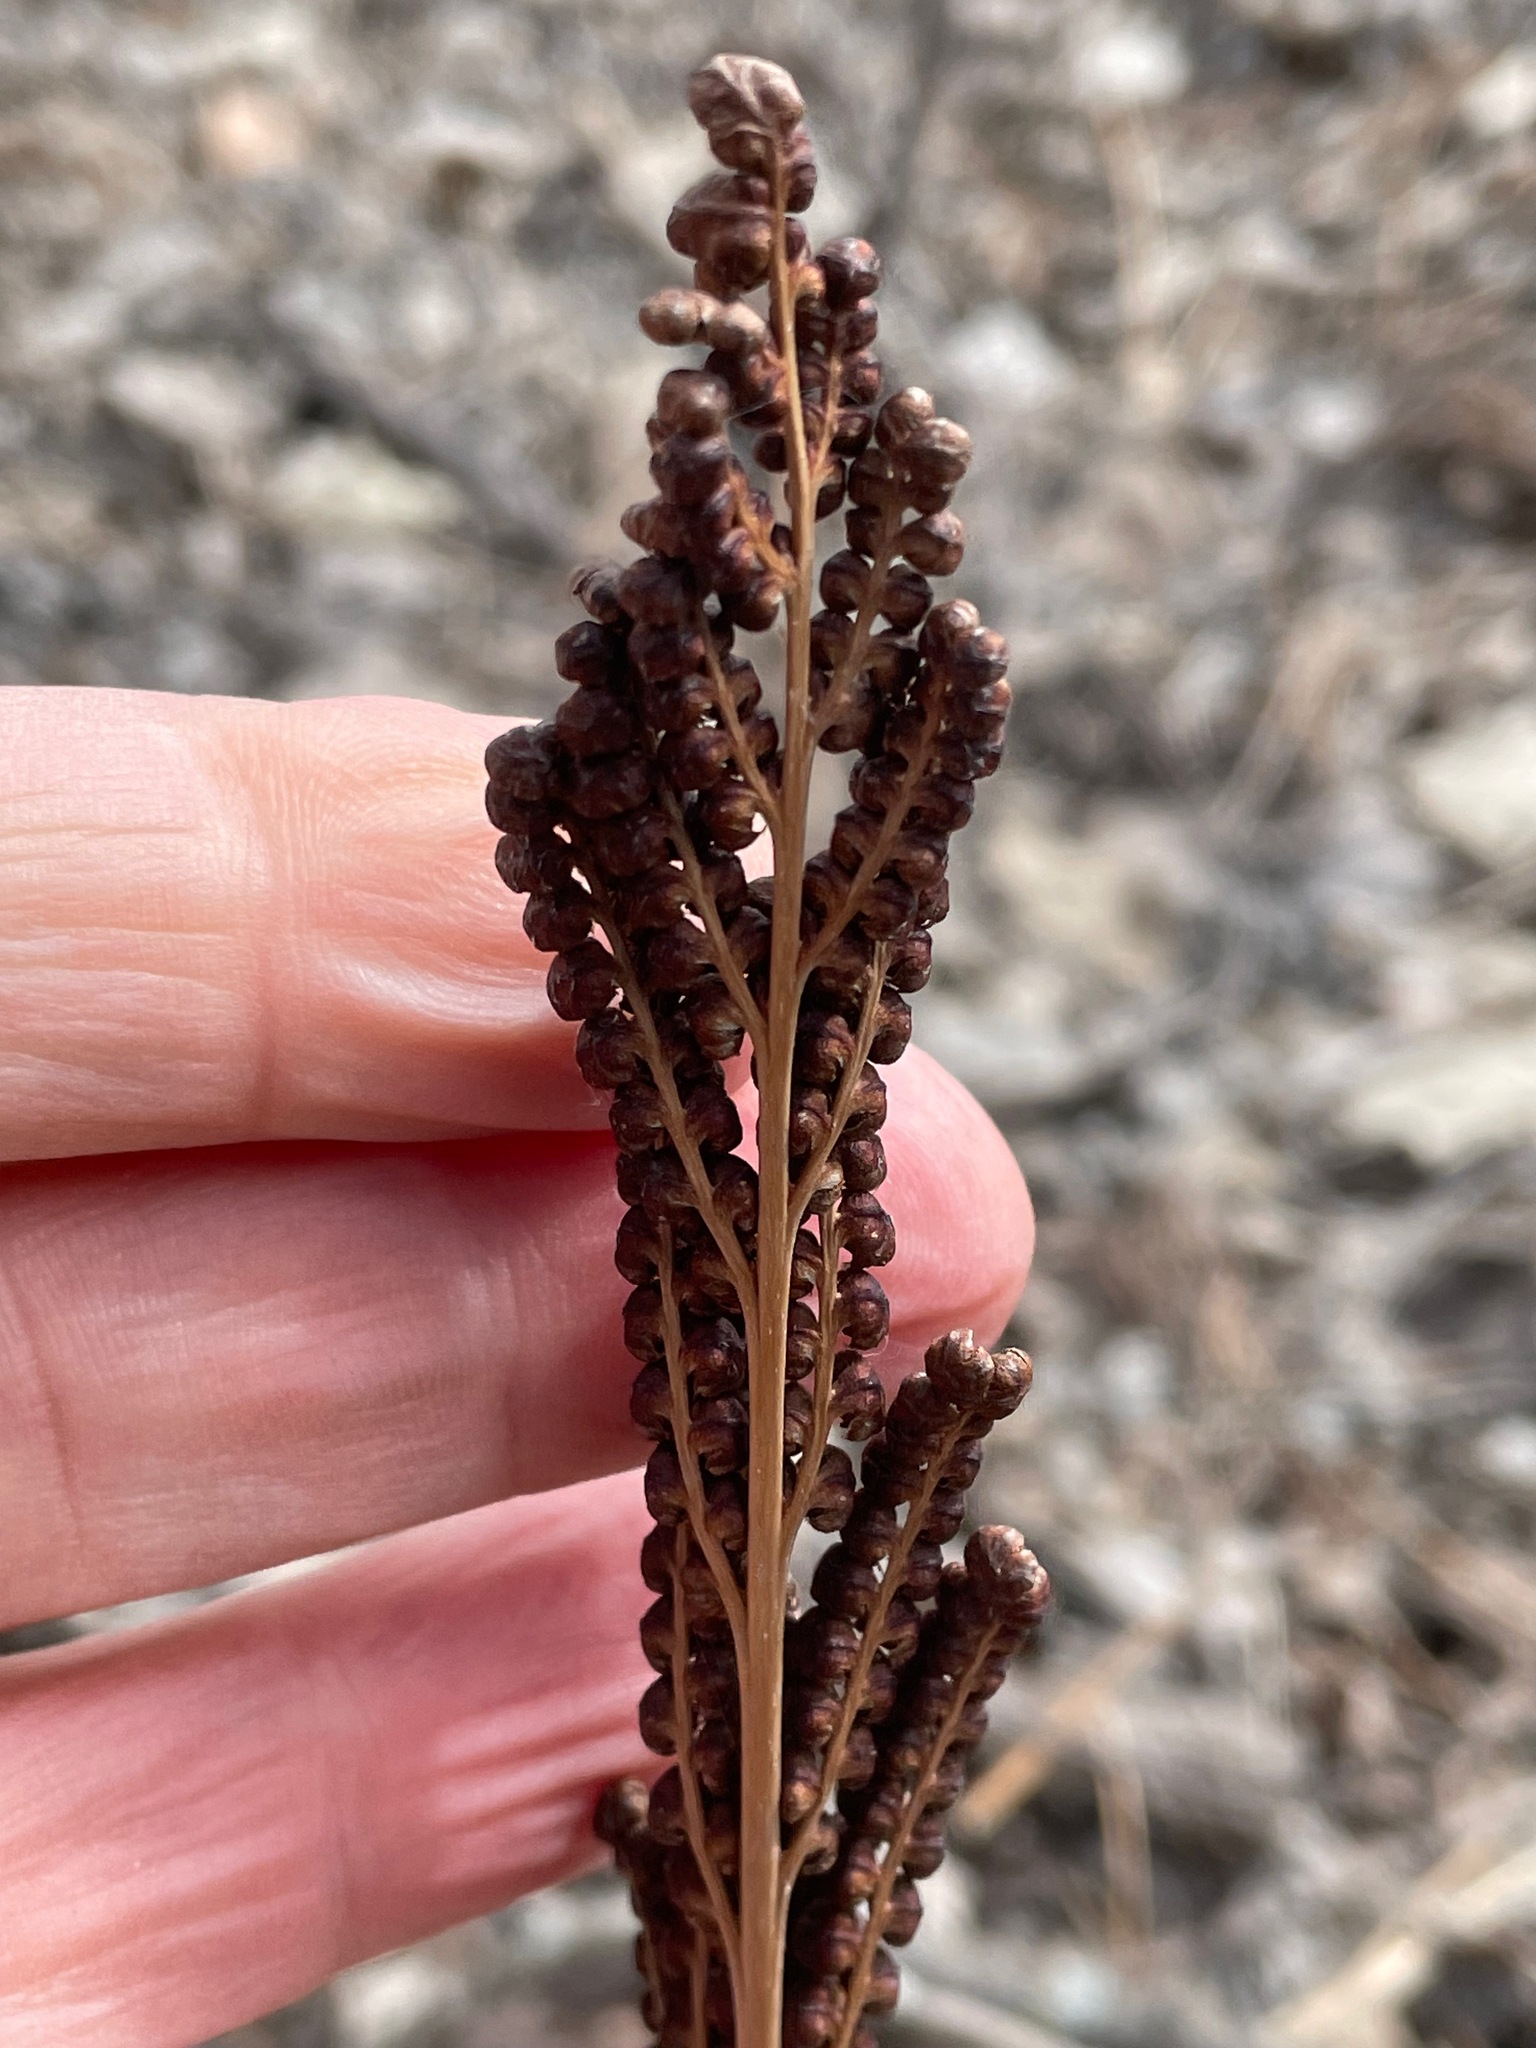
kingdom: Plantae
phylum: Tracheophyta
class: Polypodiopsida
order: Polypodiales
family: Onocleaceae
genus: Onoclea
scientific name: Onoclea sensibilis
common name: Sensitive fern
